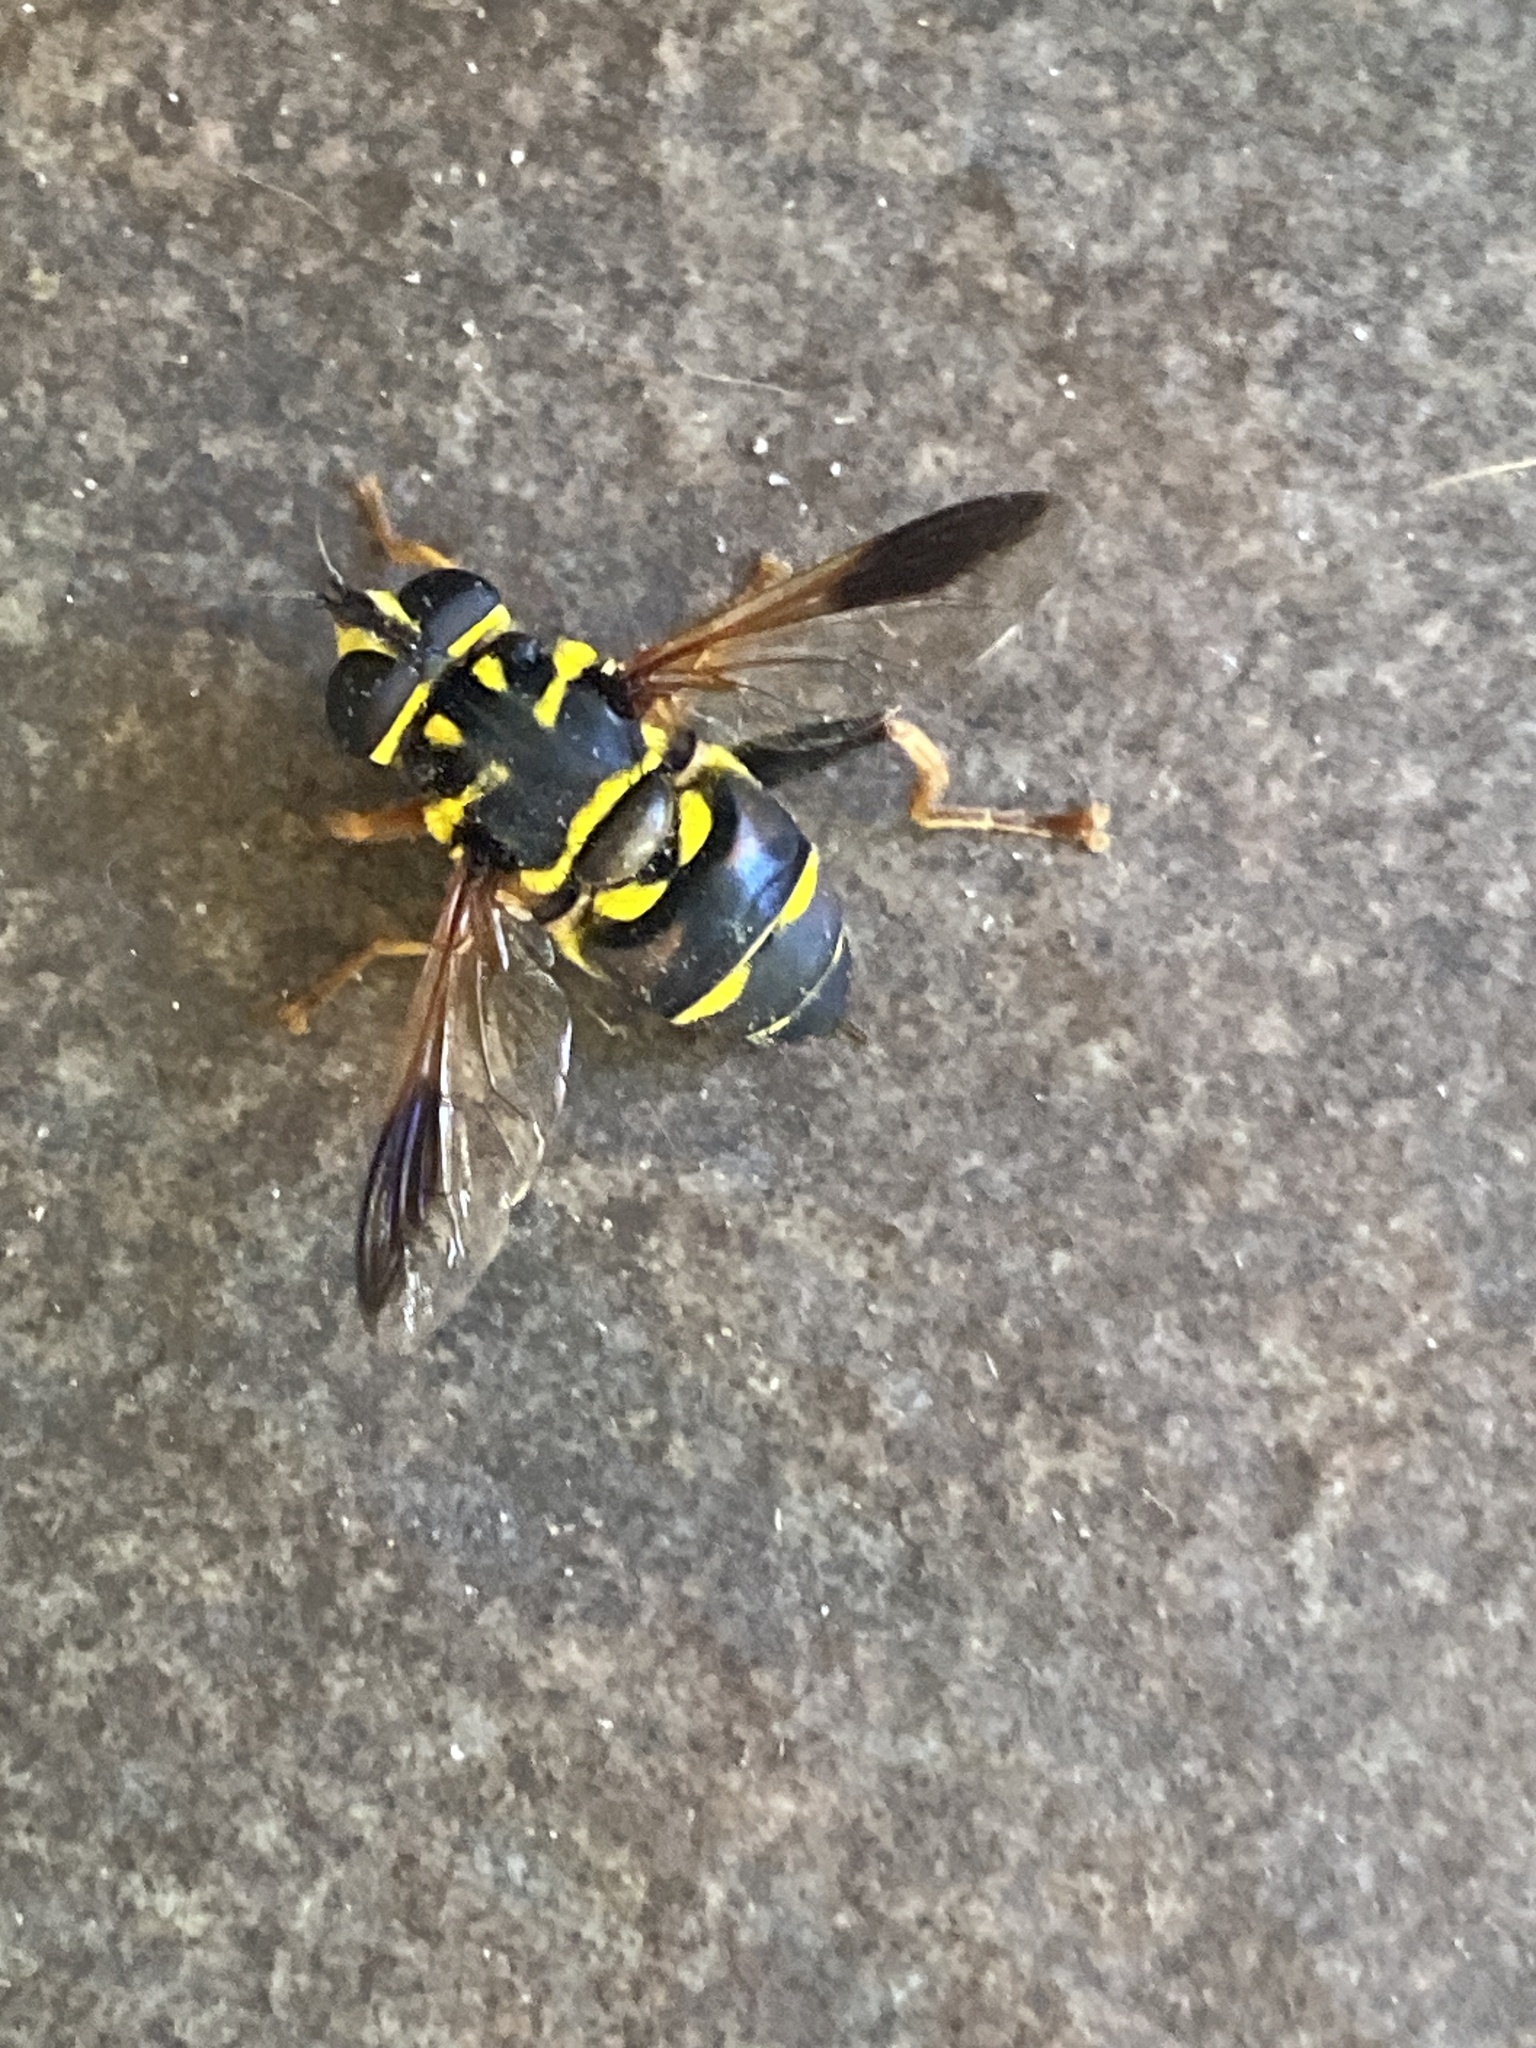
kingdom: Animalia
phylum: Arthropoda
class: Insecta
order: Diptera
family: Syrphidae
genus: Meromacrus
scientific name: Meromacrus acutus
